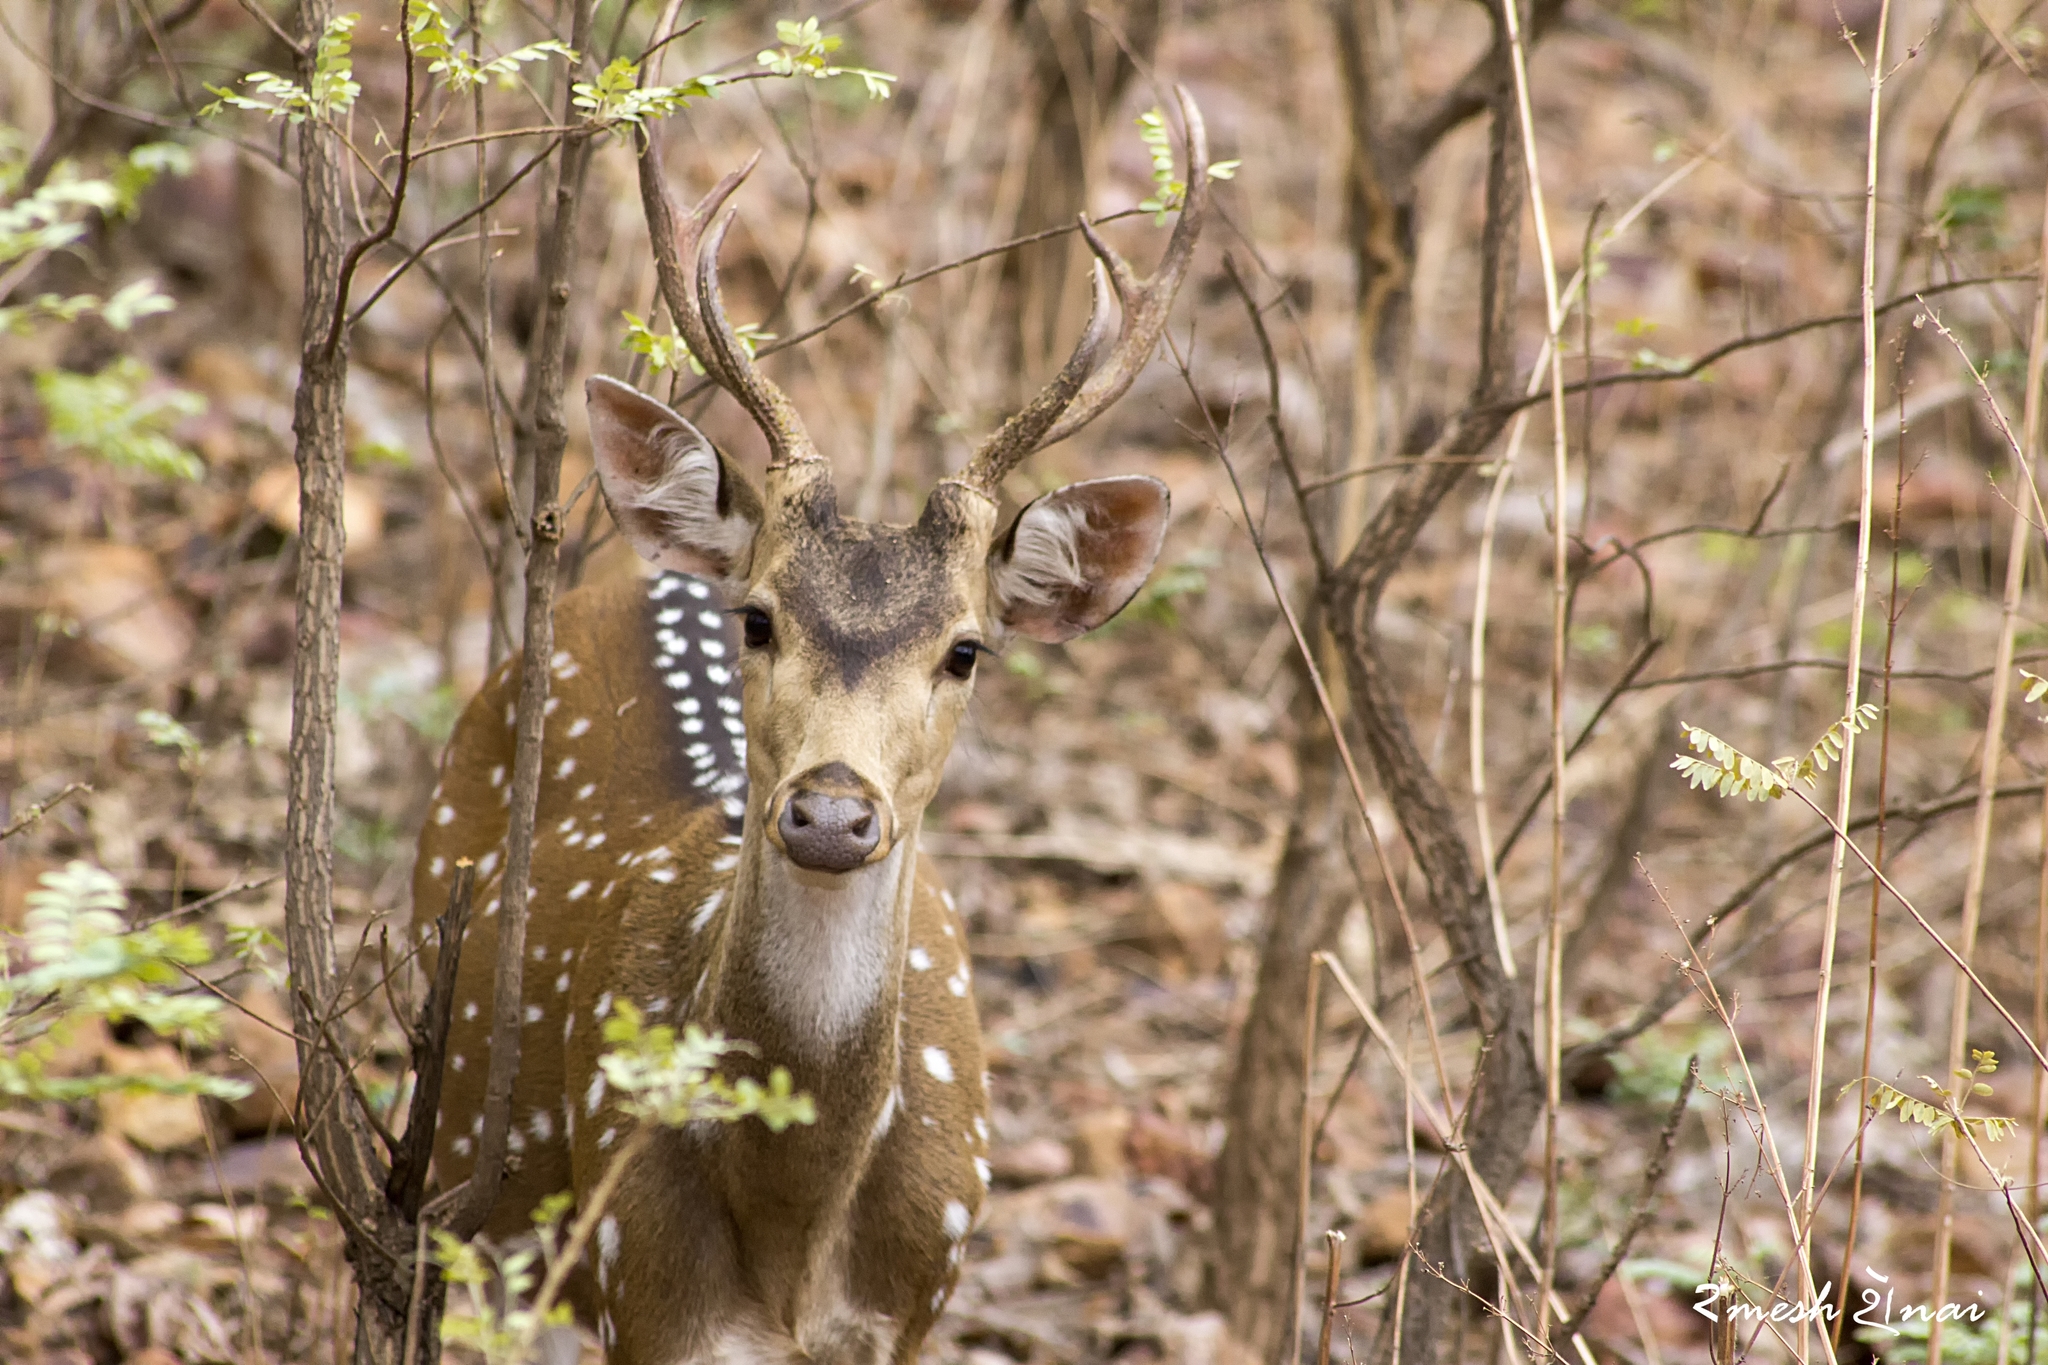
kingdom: Animalia
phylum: Chordata
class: Mammalia
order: Artiodactyla
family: Cervidae
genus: Axis
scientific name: Axis axis
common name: Chital
